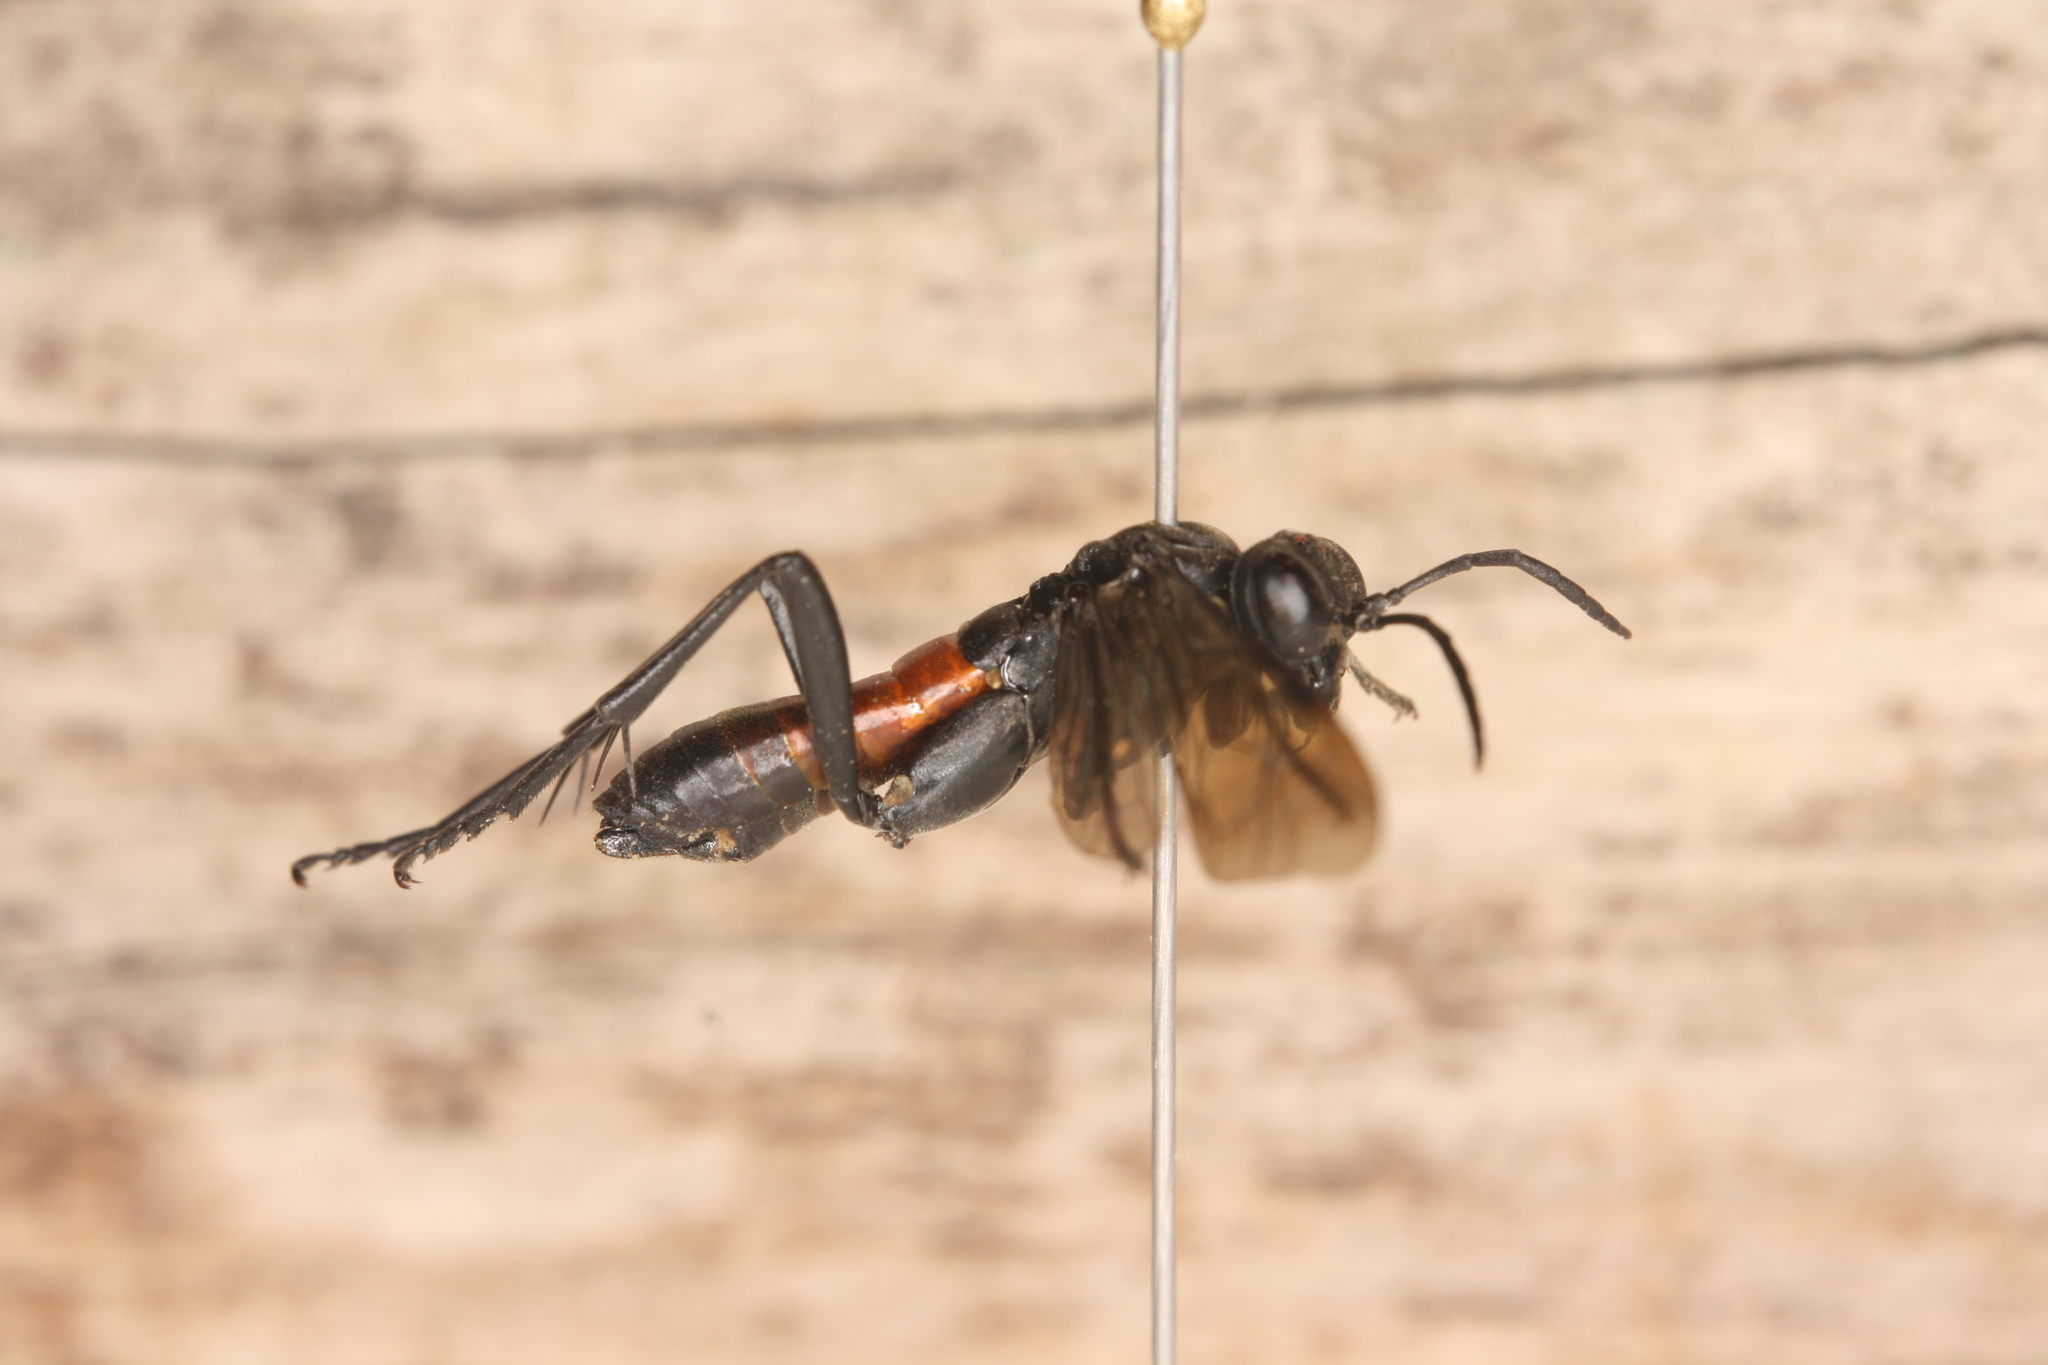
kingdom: Animalia
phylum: Arthropoda
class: Insecta
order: Hymenoptera
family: Tenthredinidae
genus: Macrophya
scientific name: Macrophya annulata
